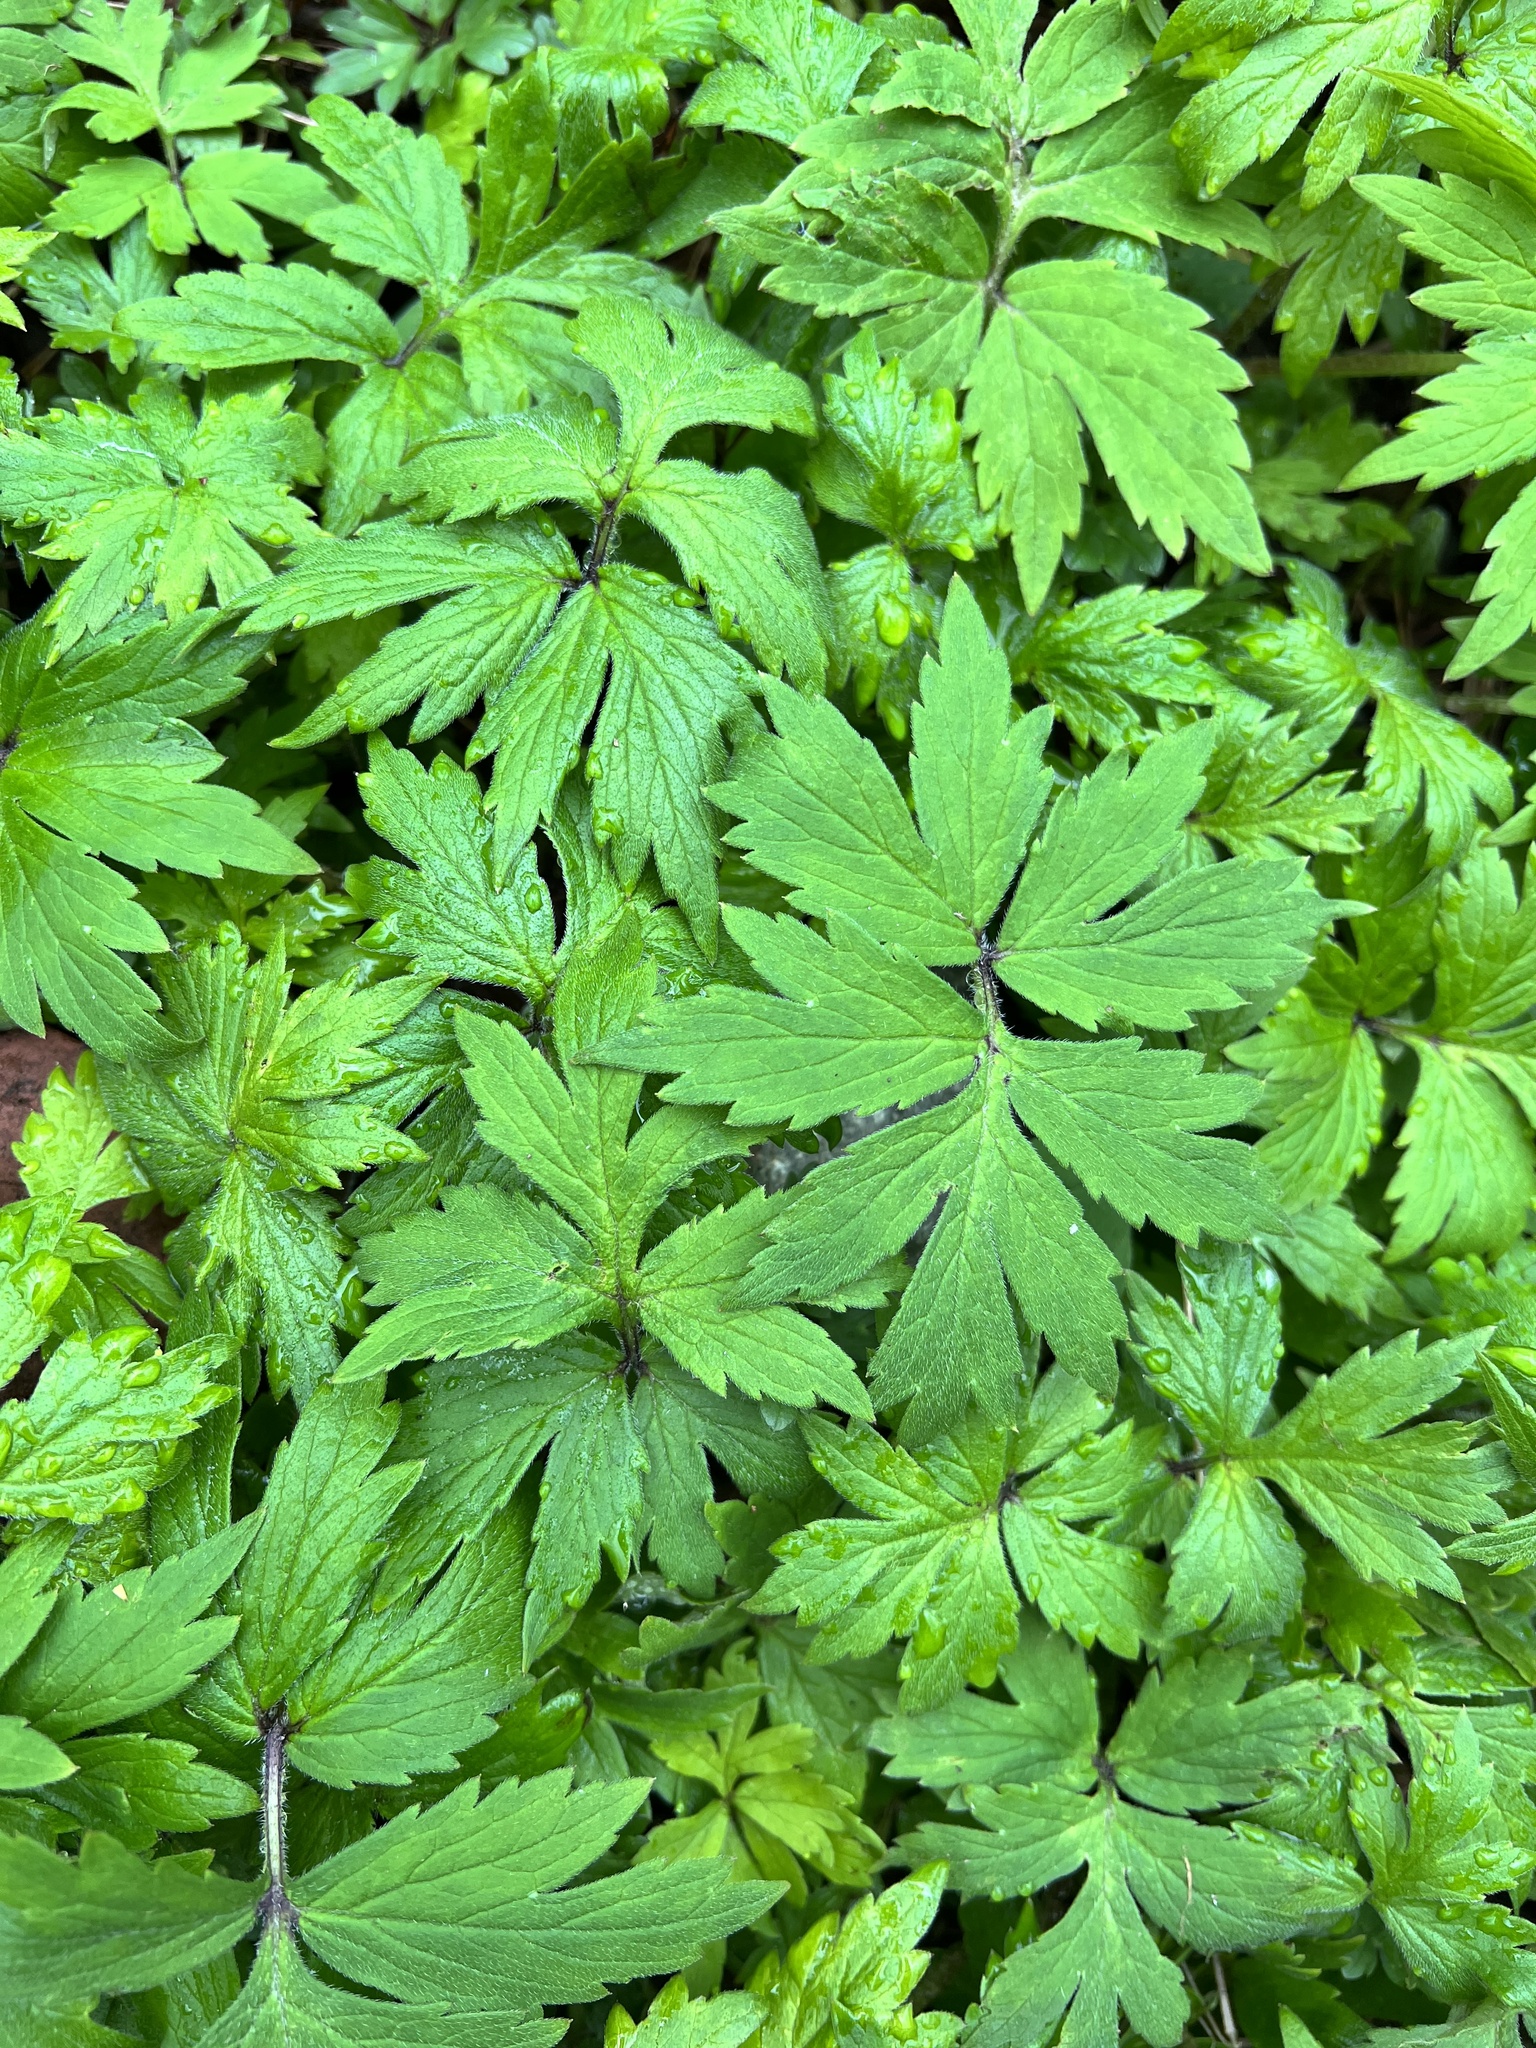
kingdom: Plantae
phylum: Tracheophyta
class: Magnoliopsida
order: Boraginales
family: Hydrophyllaceae
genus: Hydrophyllum
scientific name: Hydrophyllum tenuipes
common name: Pacific waterleaf
